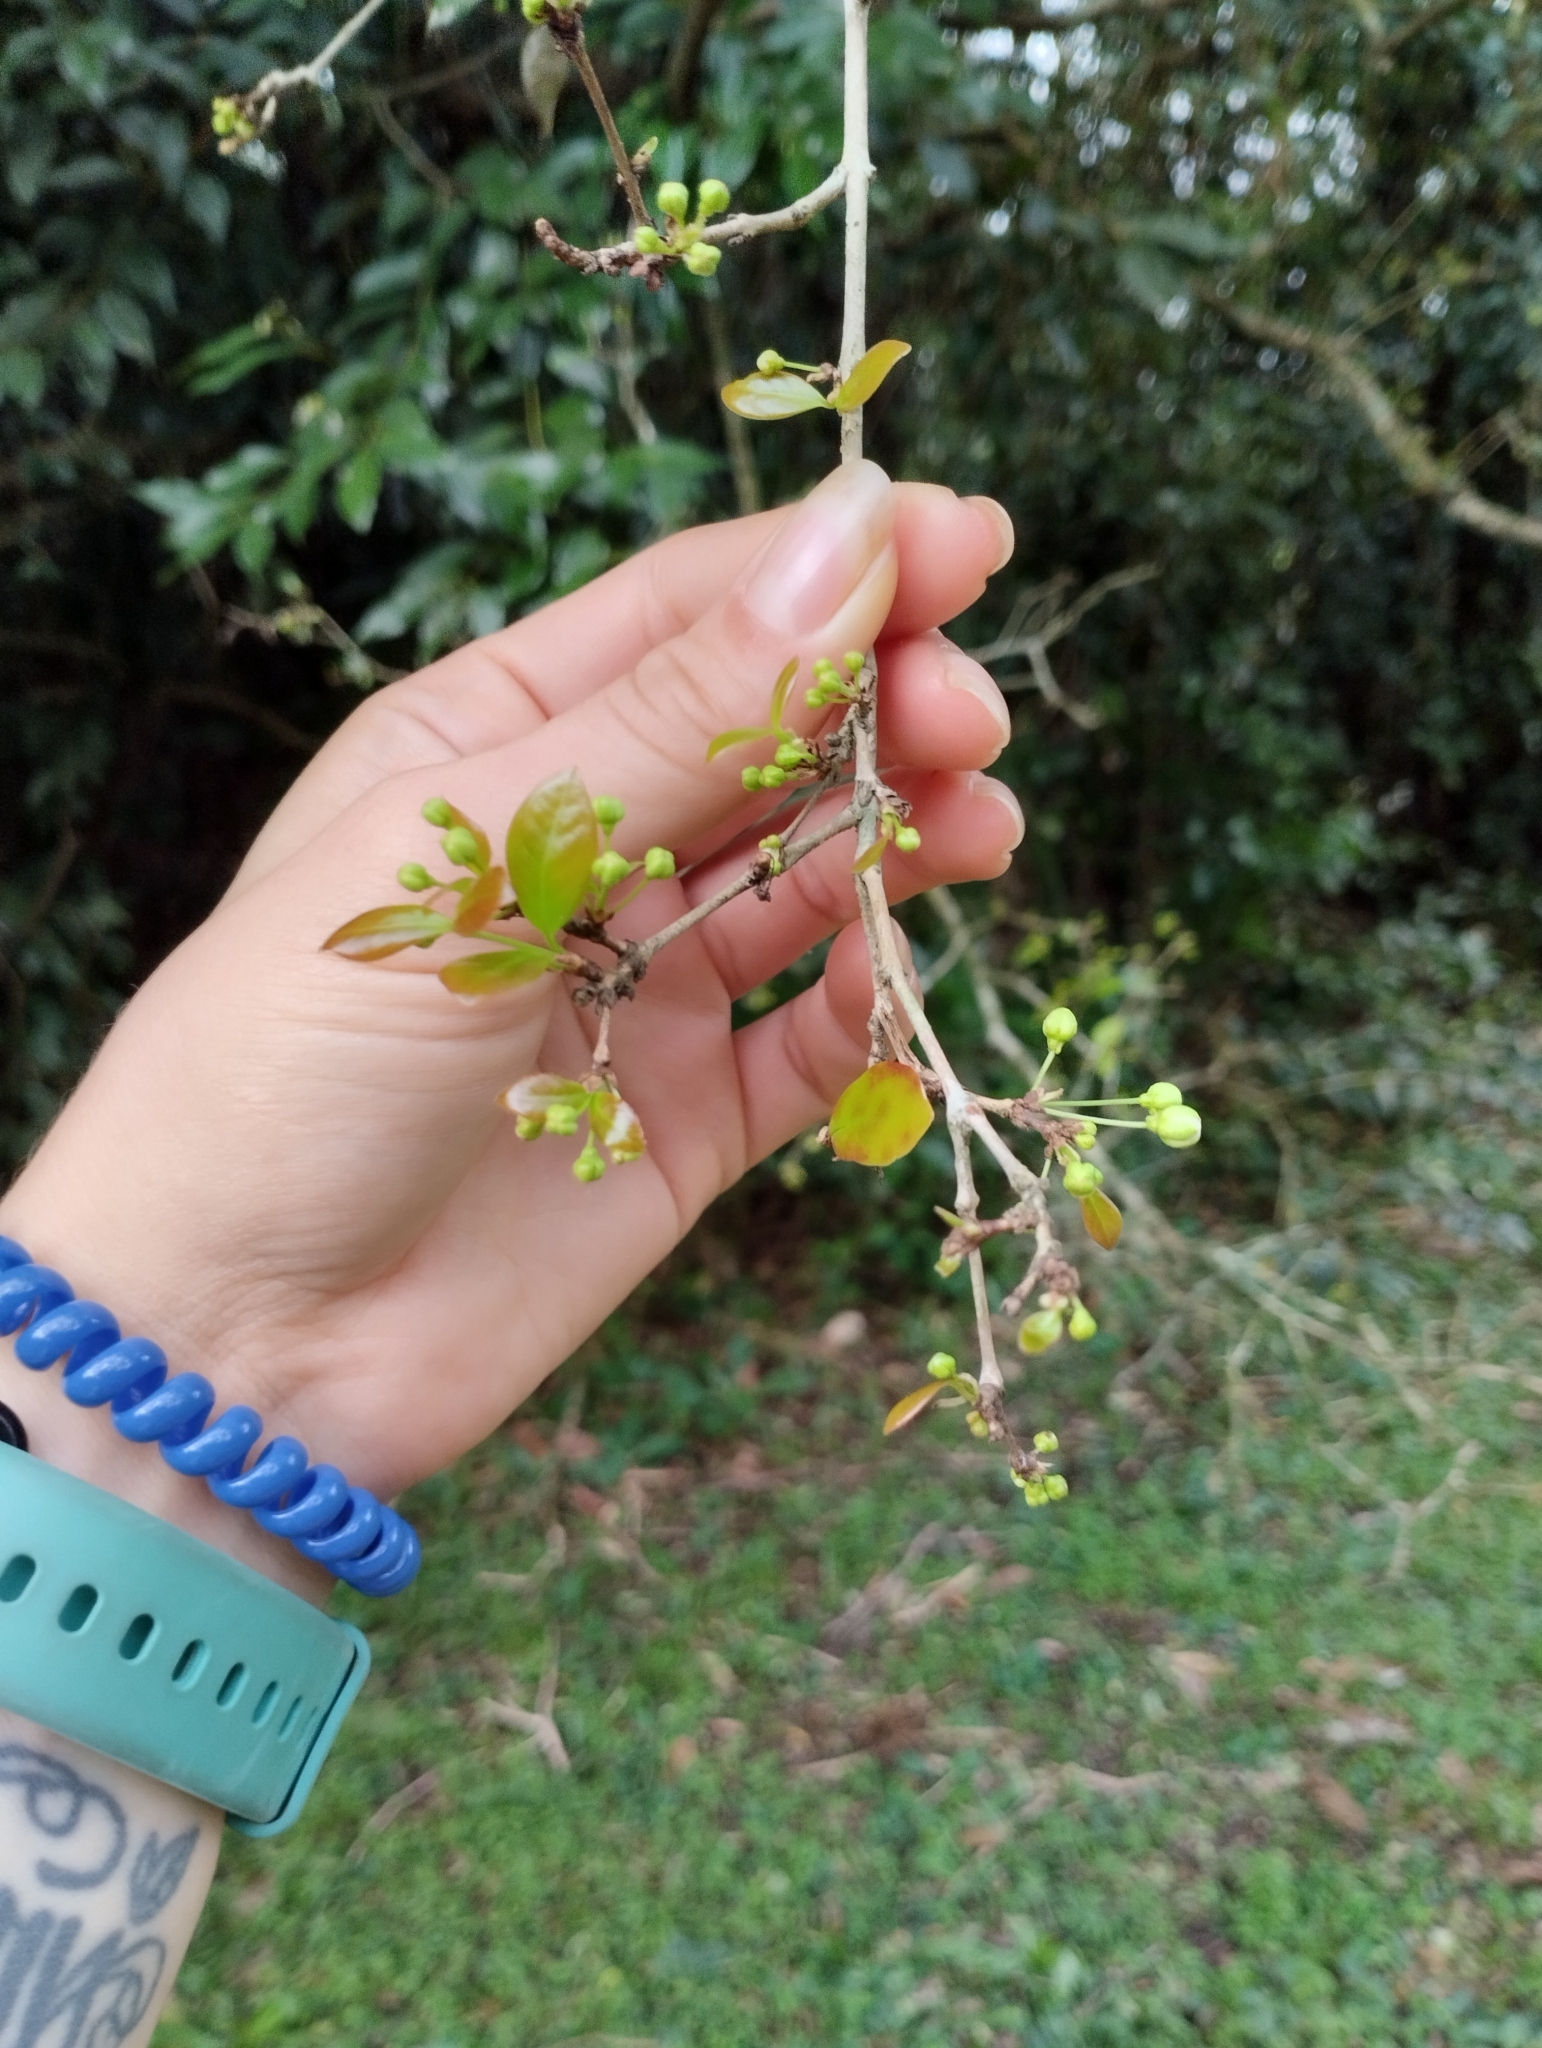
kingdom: Plantae
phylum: Tracheophyta
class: Magnoliopsida
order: Myrtales
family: Myrtaceae
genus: Eugenia
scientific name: Eugenia uniflora
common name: Surinam cherry
